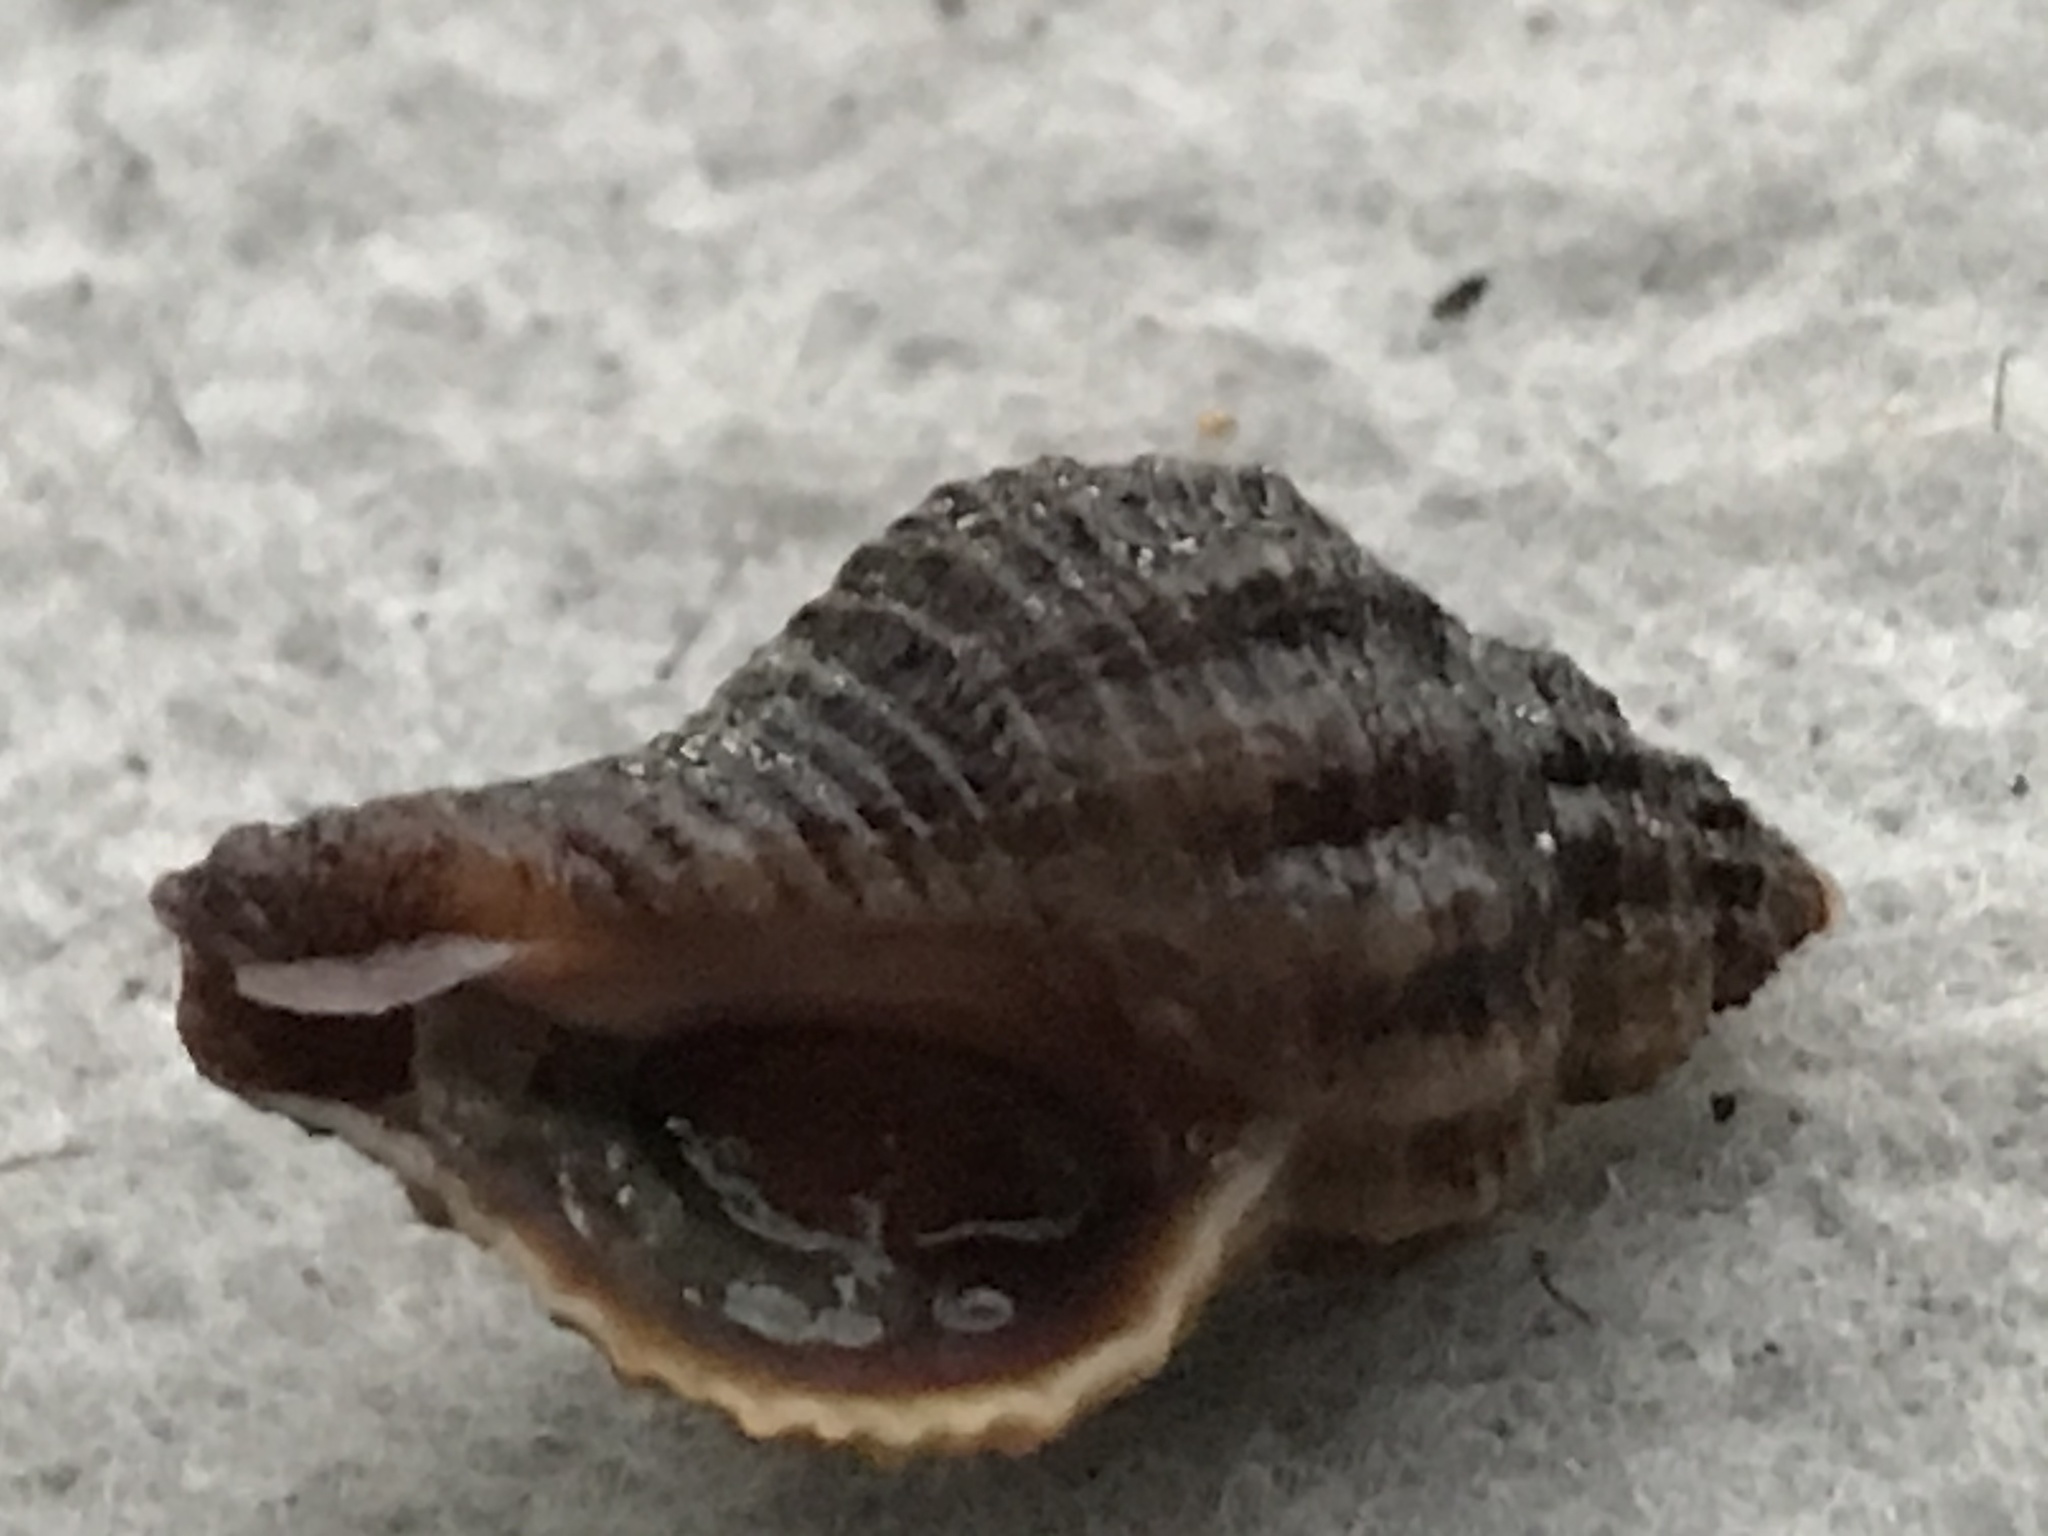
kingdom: Animalia
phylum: Mollusca
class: Gastropoda
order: Neogastropoda
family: Muricidae
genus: Urosalpinx
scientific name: Urosalpinx cinerea
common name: American sting winkle
